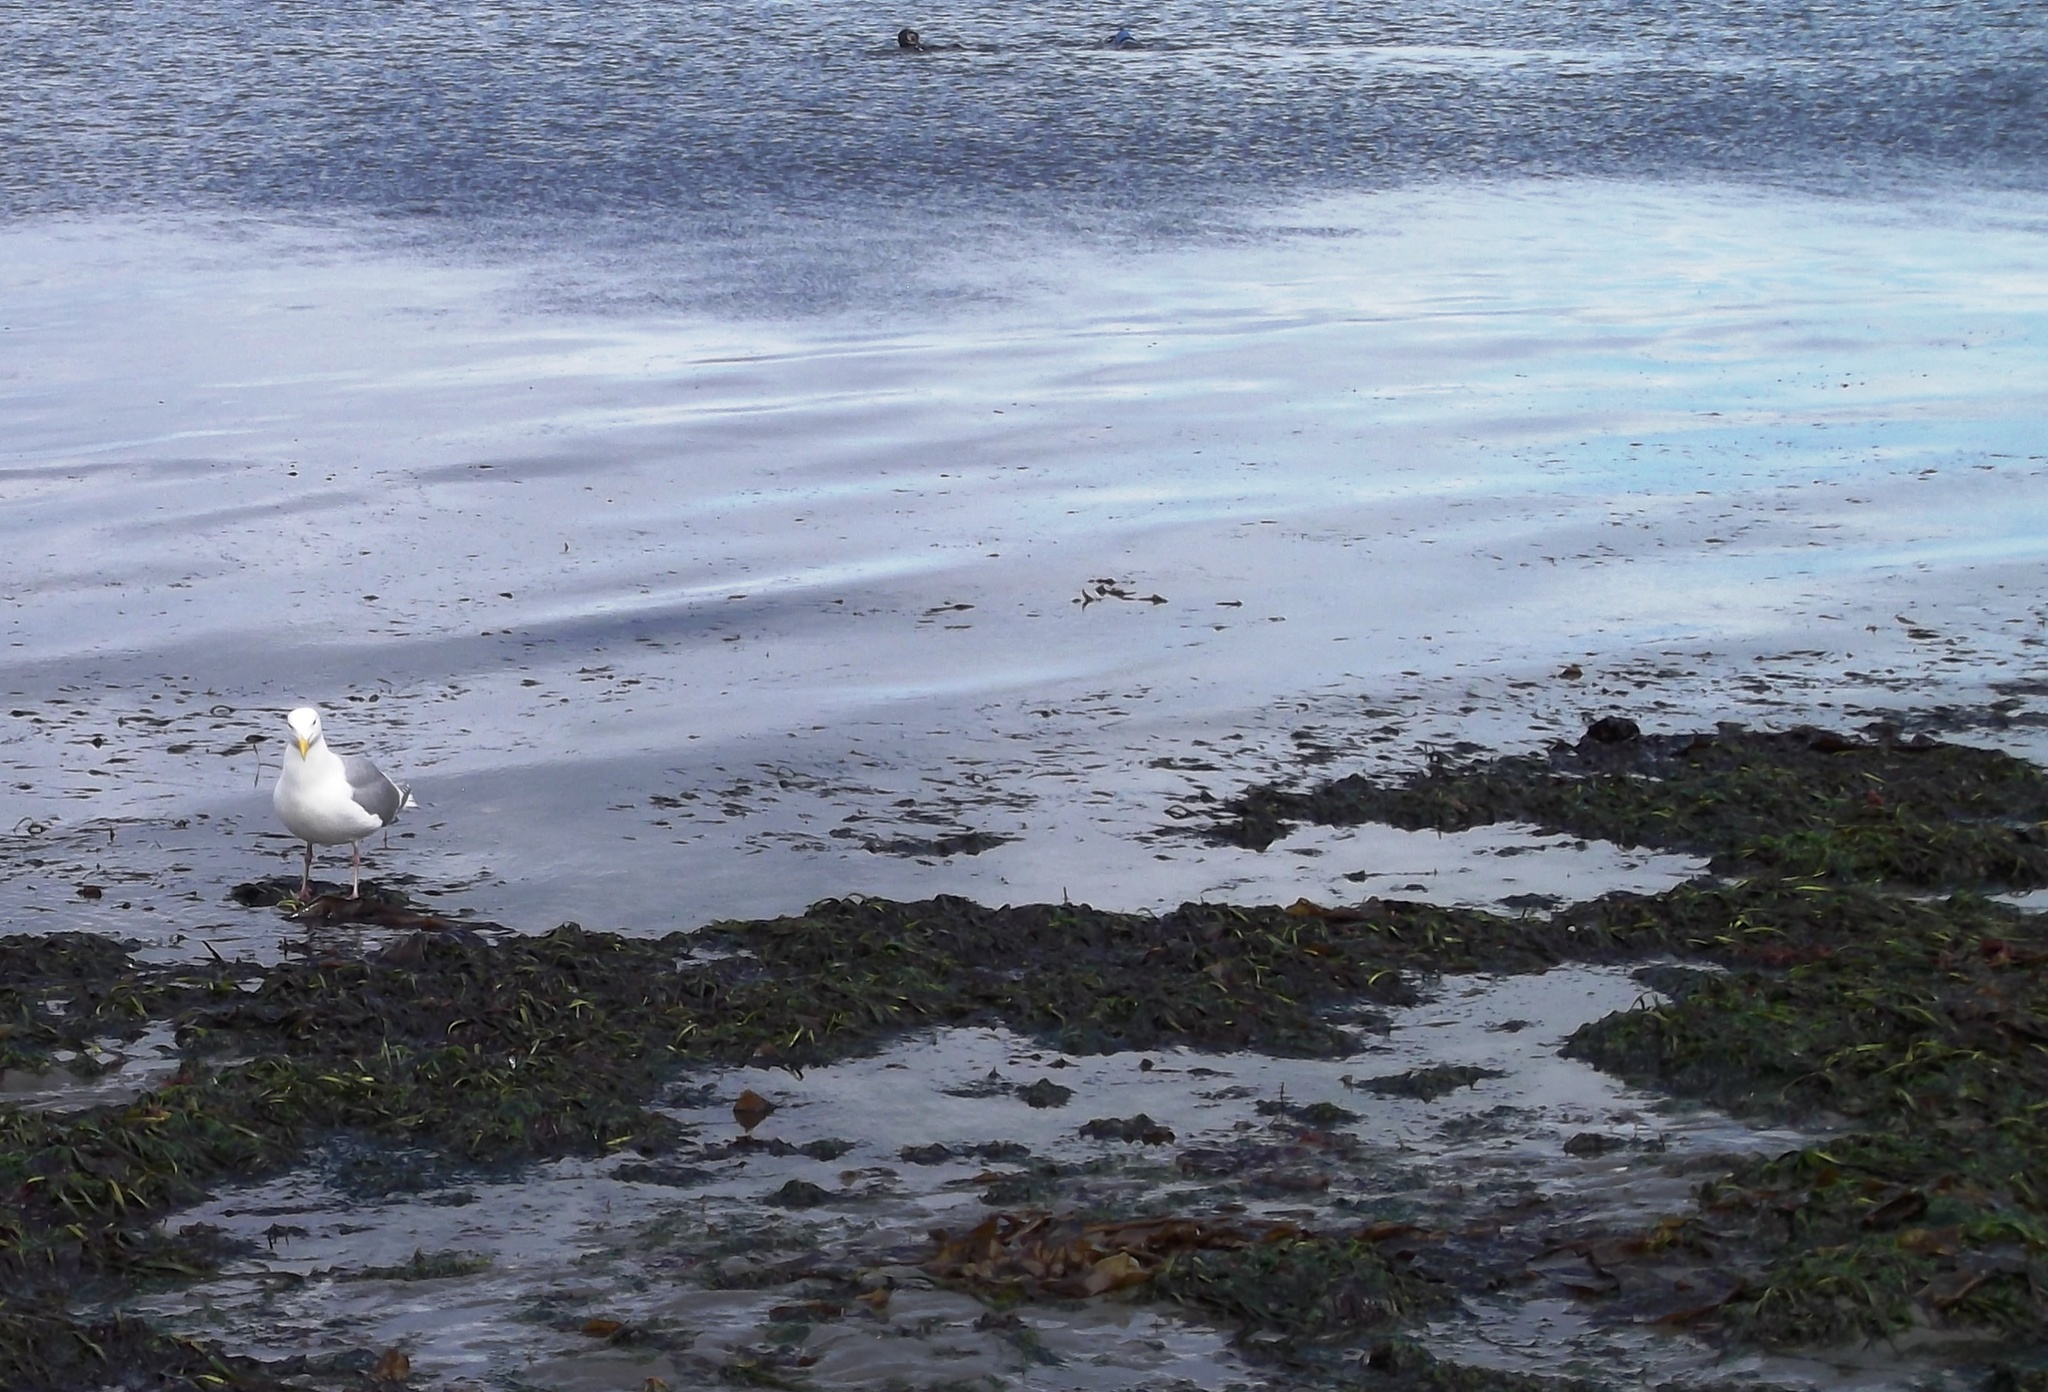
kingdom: Animalia
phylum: Chordata
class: Aves
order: Charadriiformes
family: Laridae
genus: Larus
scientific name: Larus
